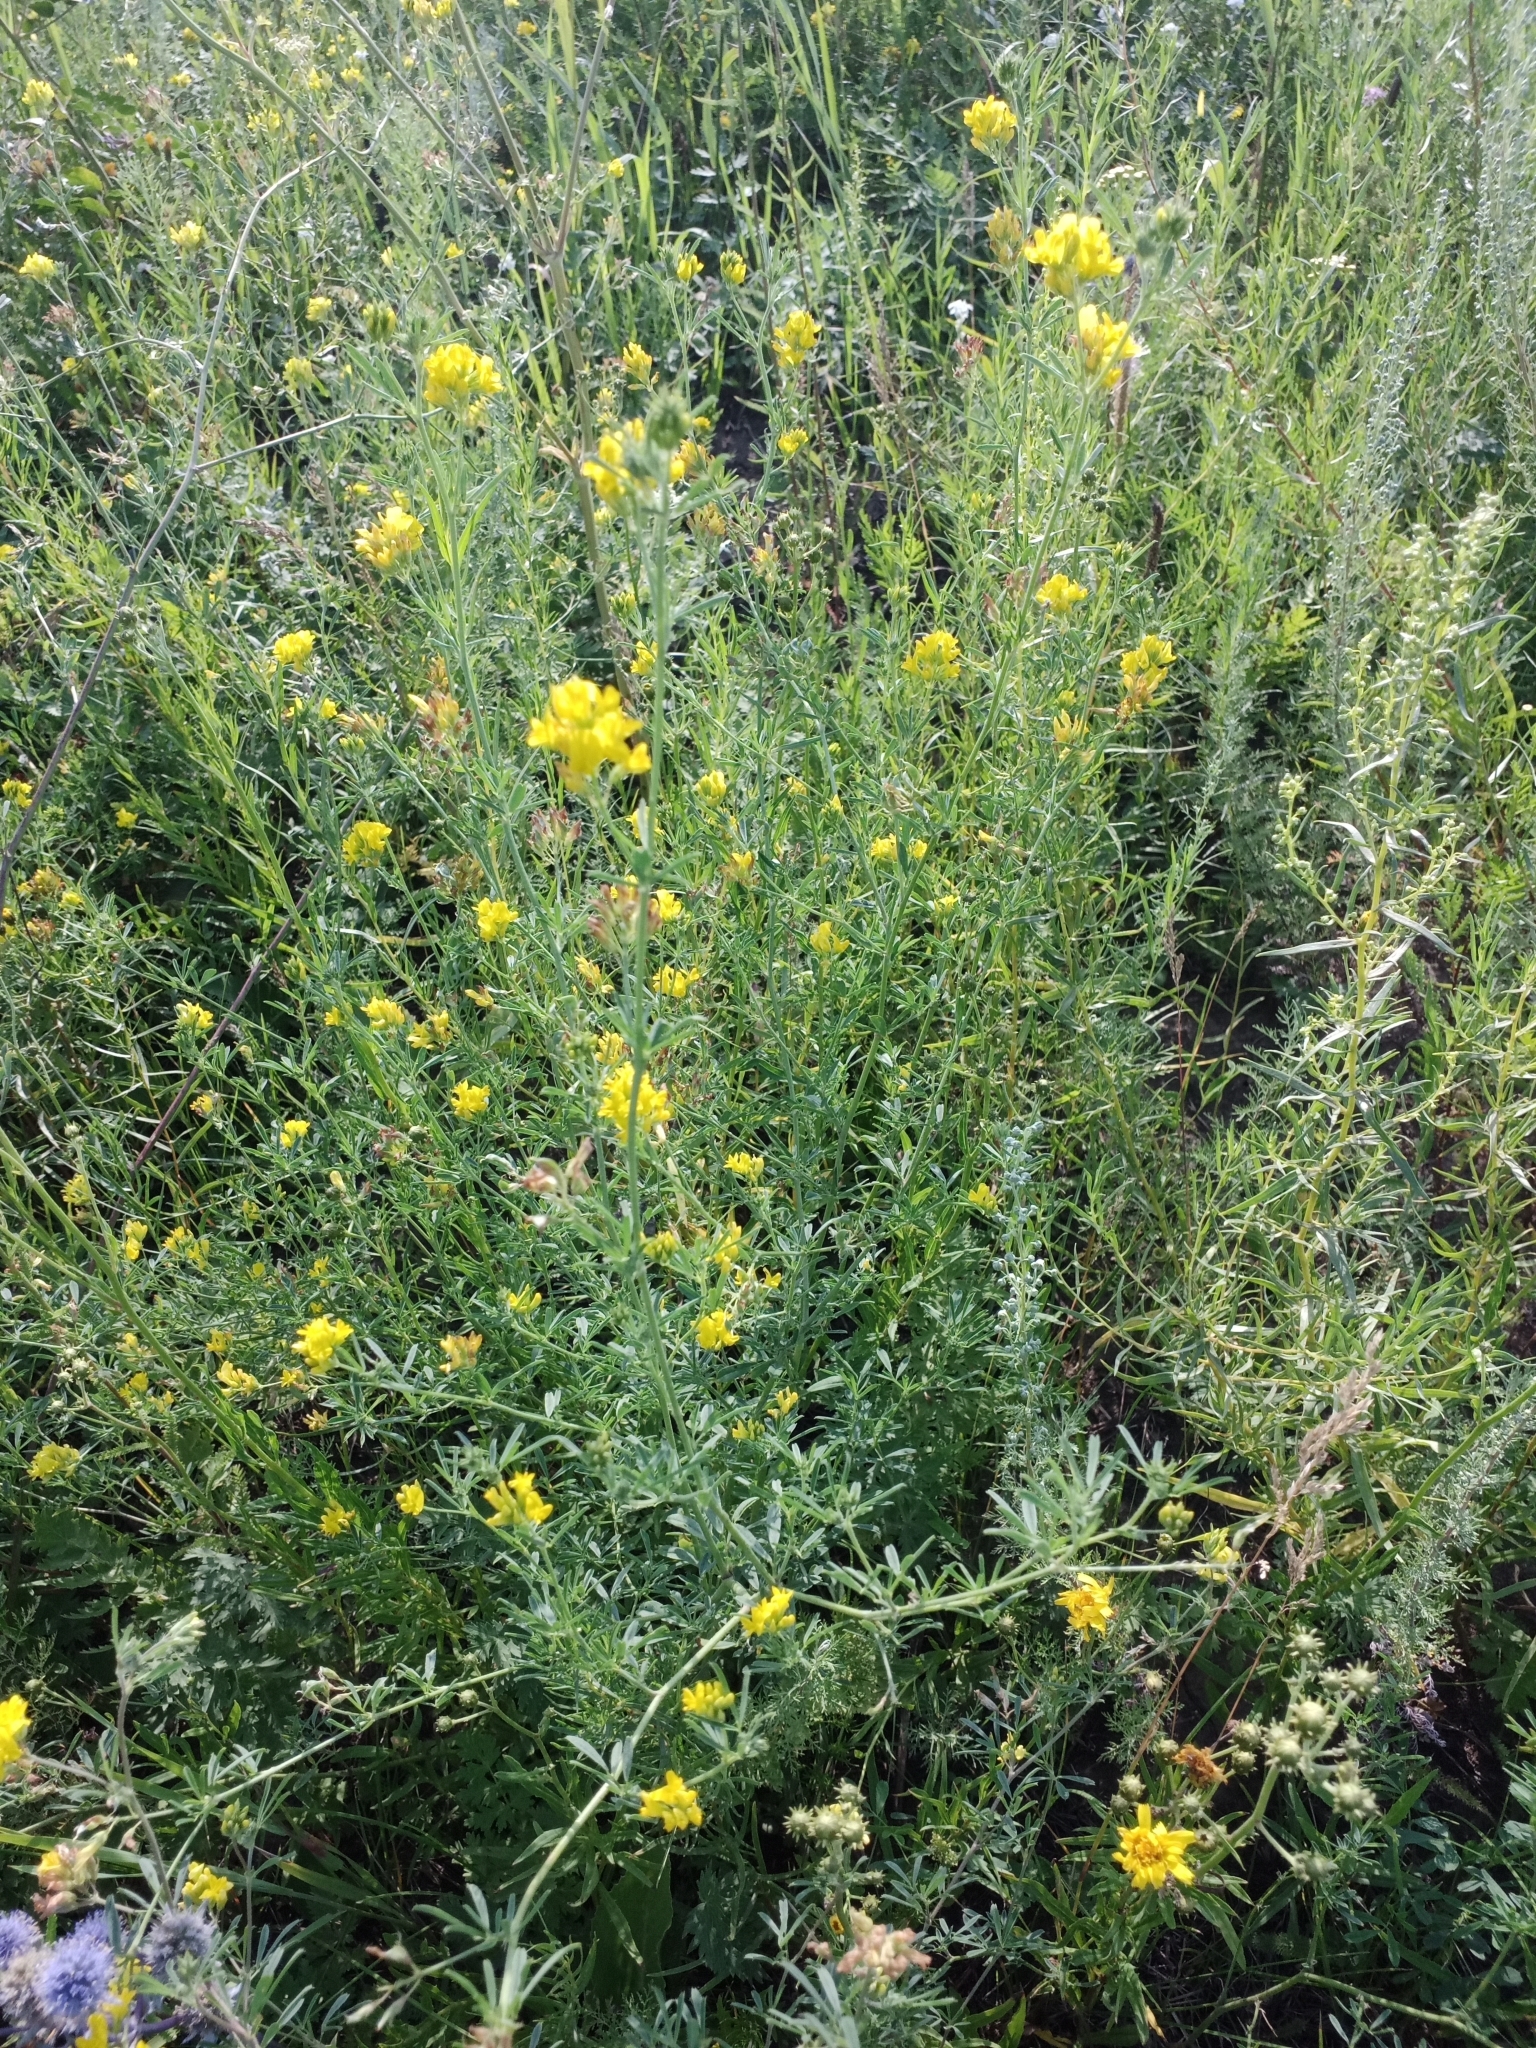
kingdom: Plantae
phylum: Tracheophyta
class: Magnoliopsida
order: Fabales
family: Fabaceae
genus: Medicago
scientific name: Medicago falcata
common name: Sickle medick
